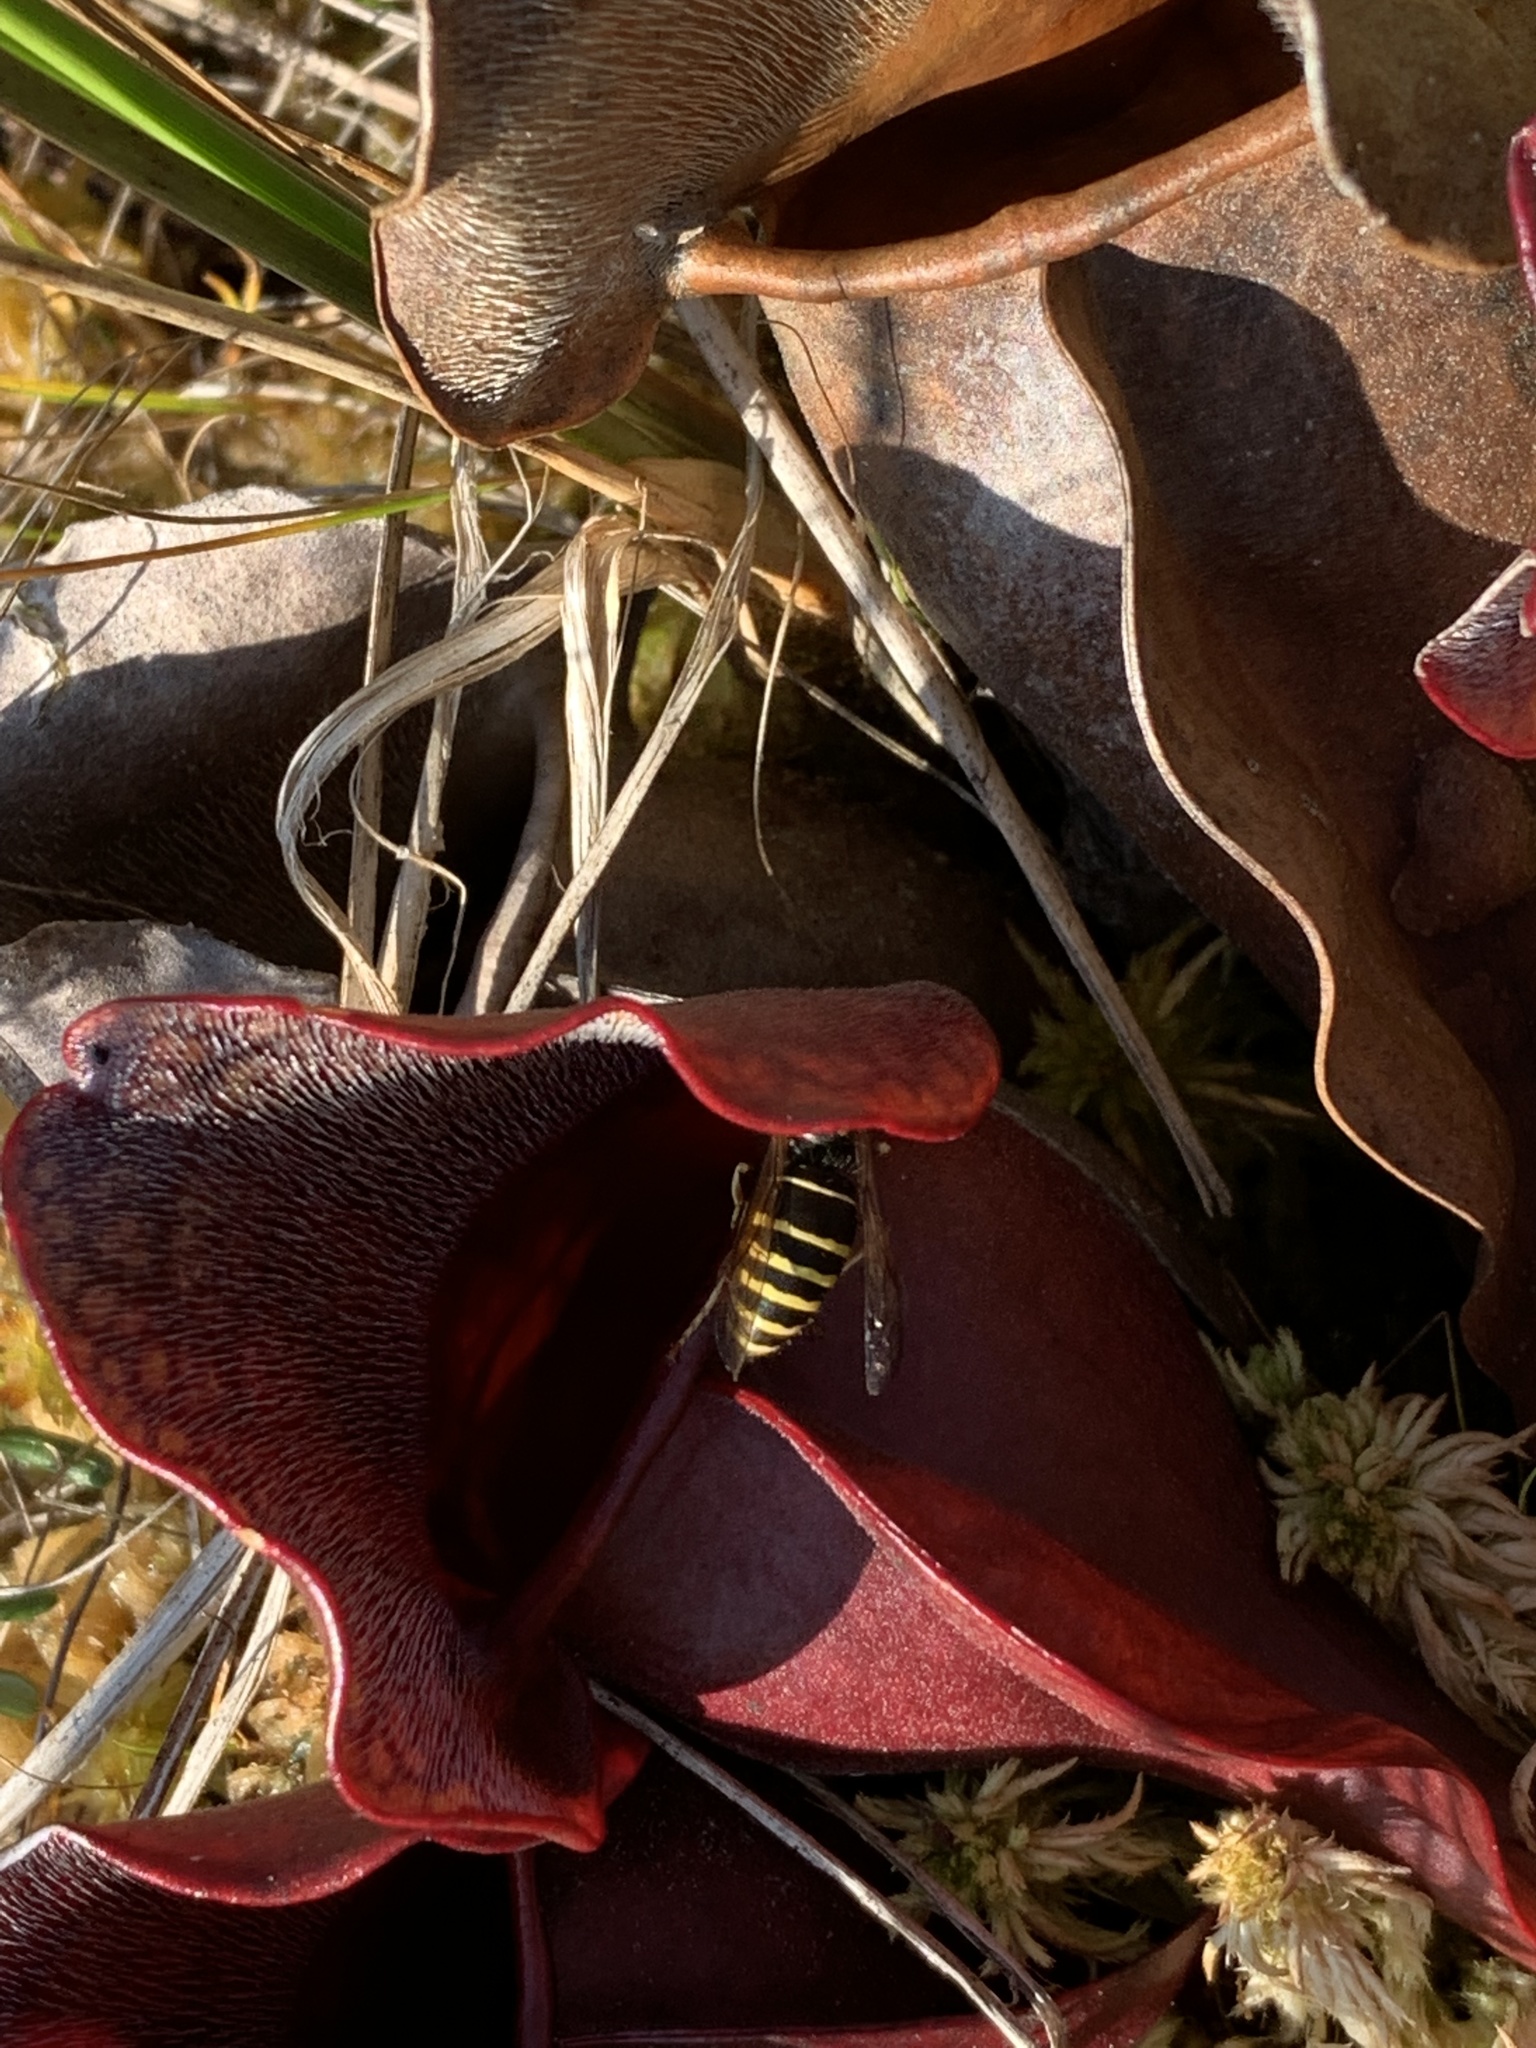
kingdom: Animalia
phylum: Arthropoda
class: Insecta
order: Hymenoptera
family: Vespidae
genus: Vespula
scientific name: Vespula acadica
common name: Forest yellowjacket
